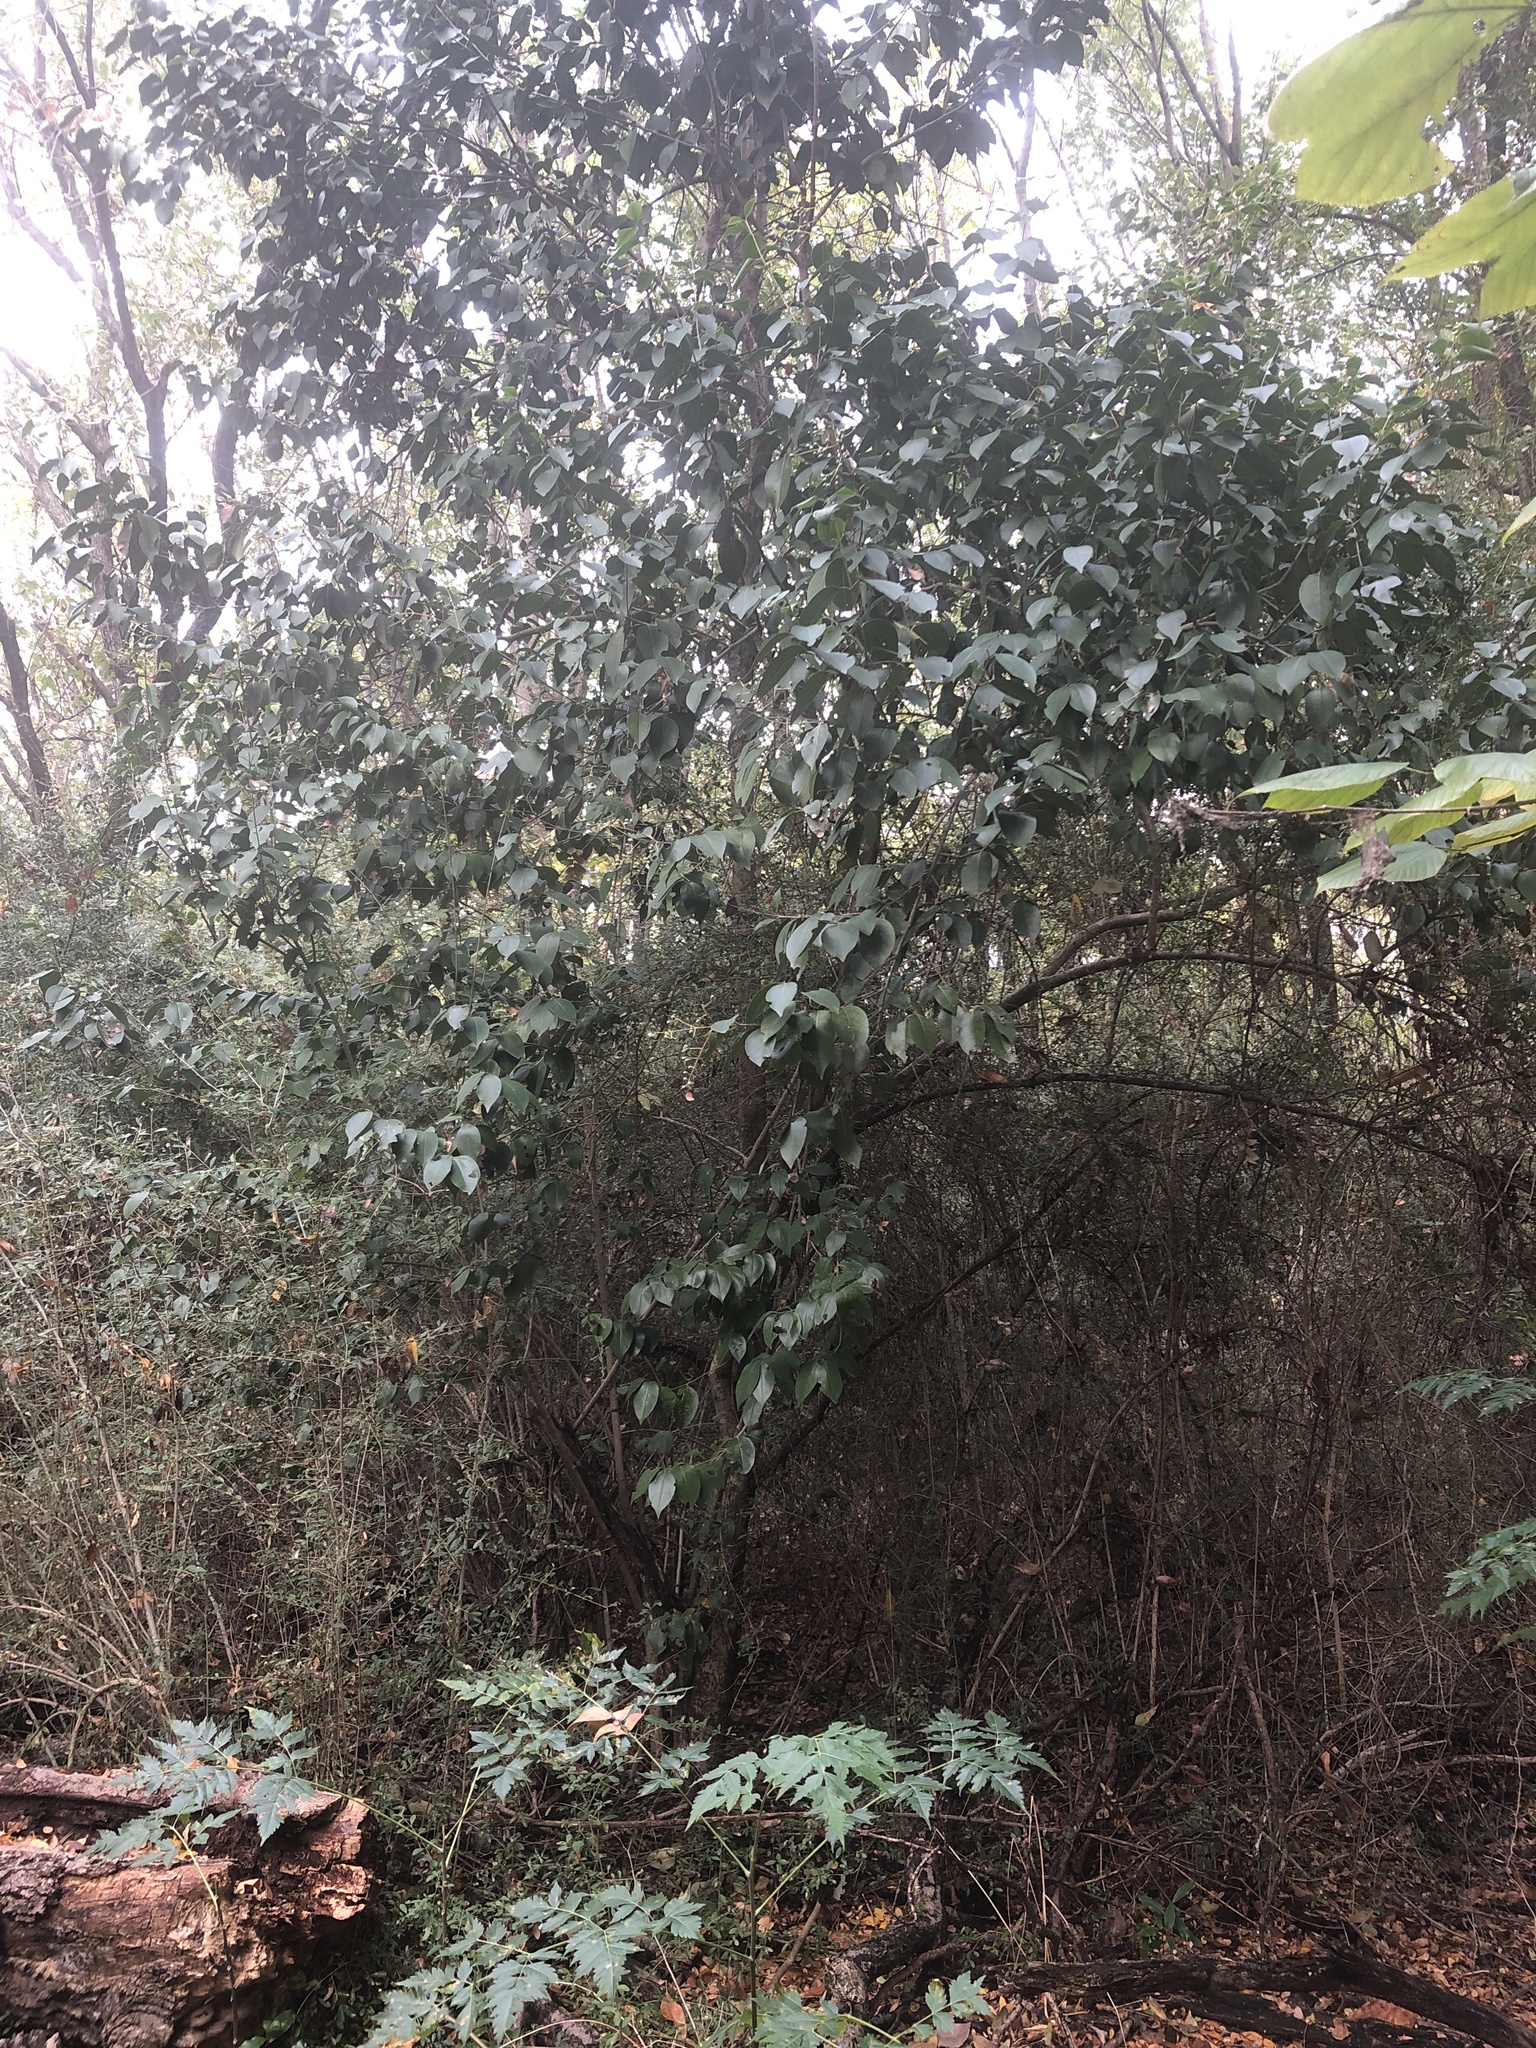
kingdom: Plantae
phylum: Tracheophyta
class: Magnoliopsida
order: Lamiales
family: Oleaceae
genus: Ligustrum
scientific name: Ligustrum lucidum
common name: Glossy privet
